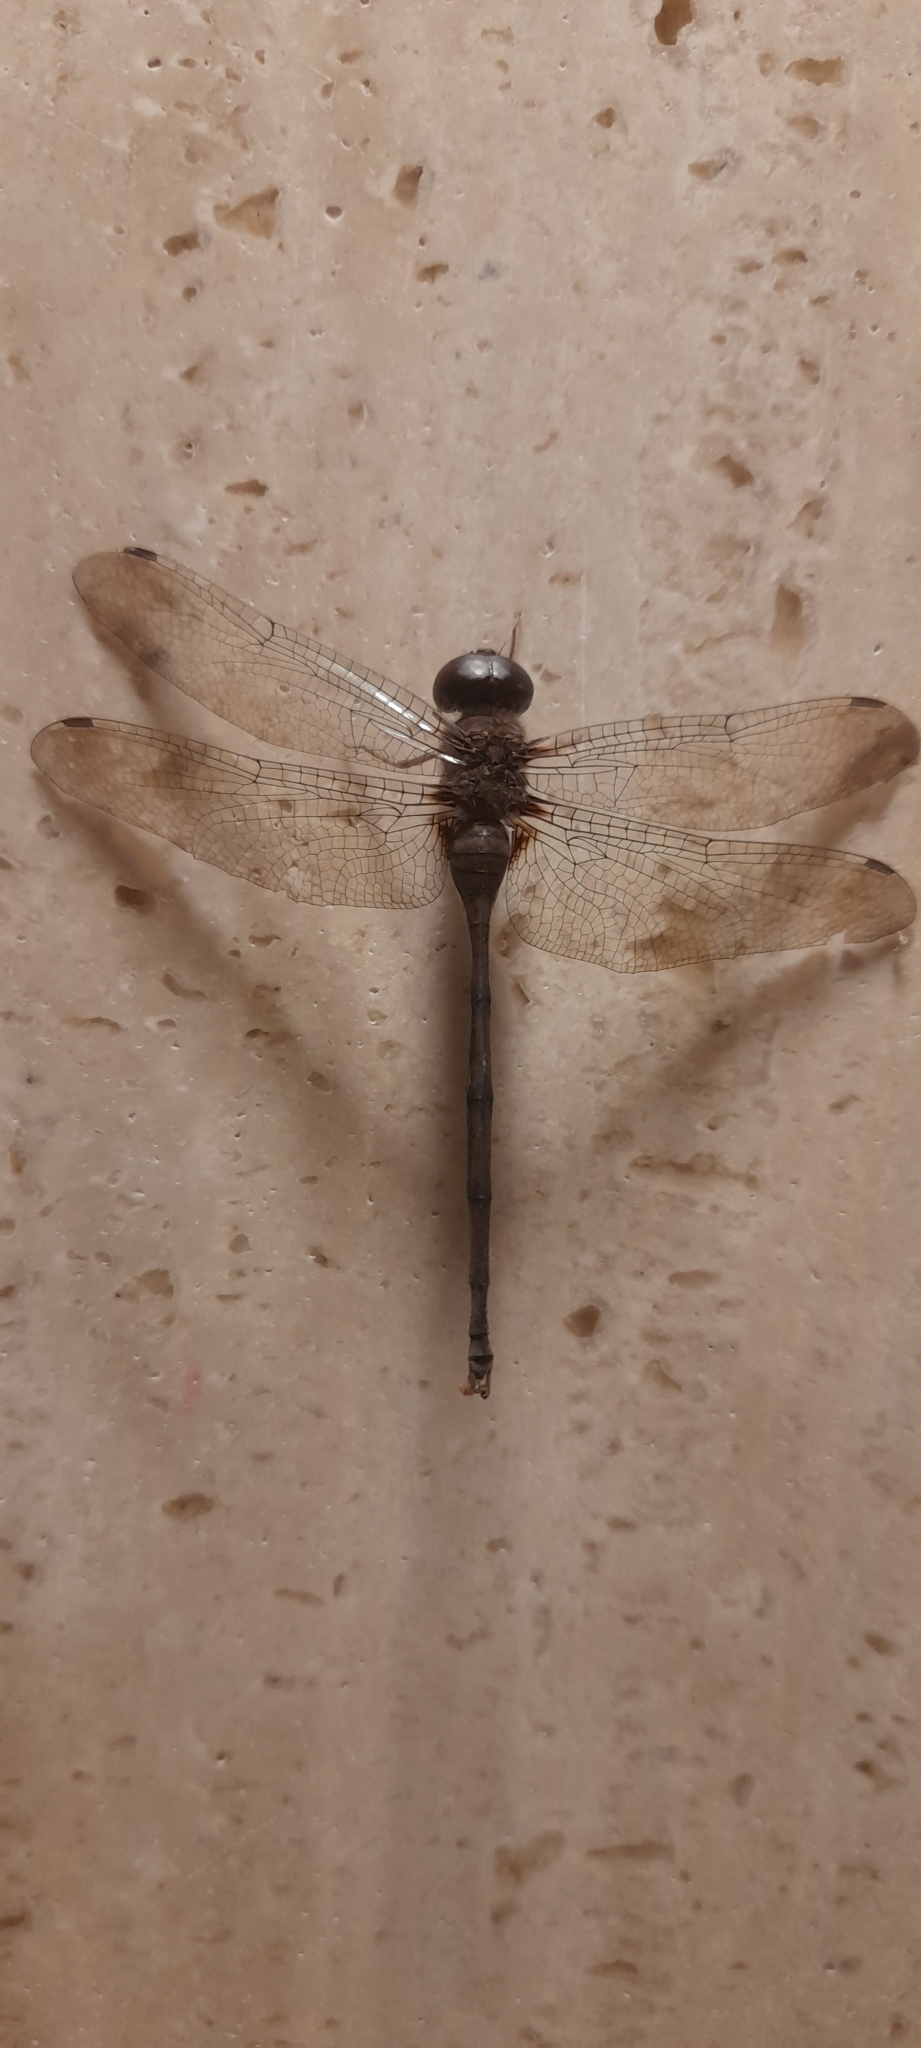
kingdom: Animalia
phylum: Arthropoda
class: Insecta
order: Odonata
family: Libellulidae
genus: Zyxomma
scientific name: Zyxomma petiolatum
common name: Dingy dusk-darter
